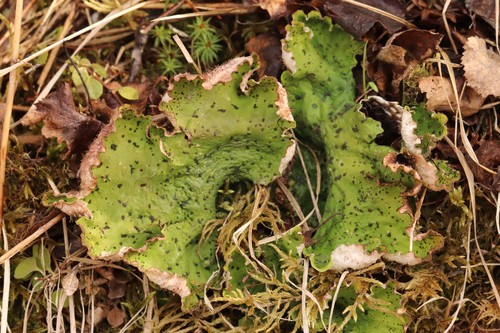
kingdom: Fungi
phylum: Ascomycota
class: Lecanoromycetes
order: Peltigerales
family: Peltigeraceae
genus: Peltigera
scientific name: Peltigera
